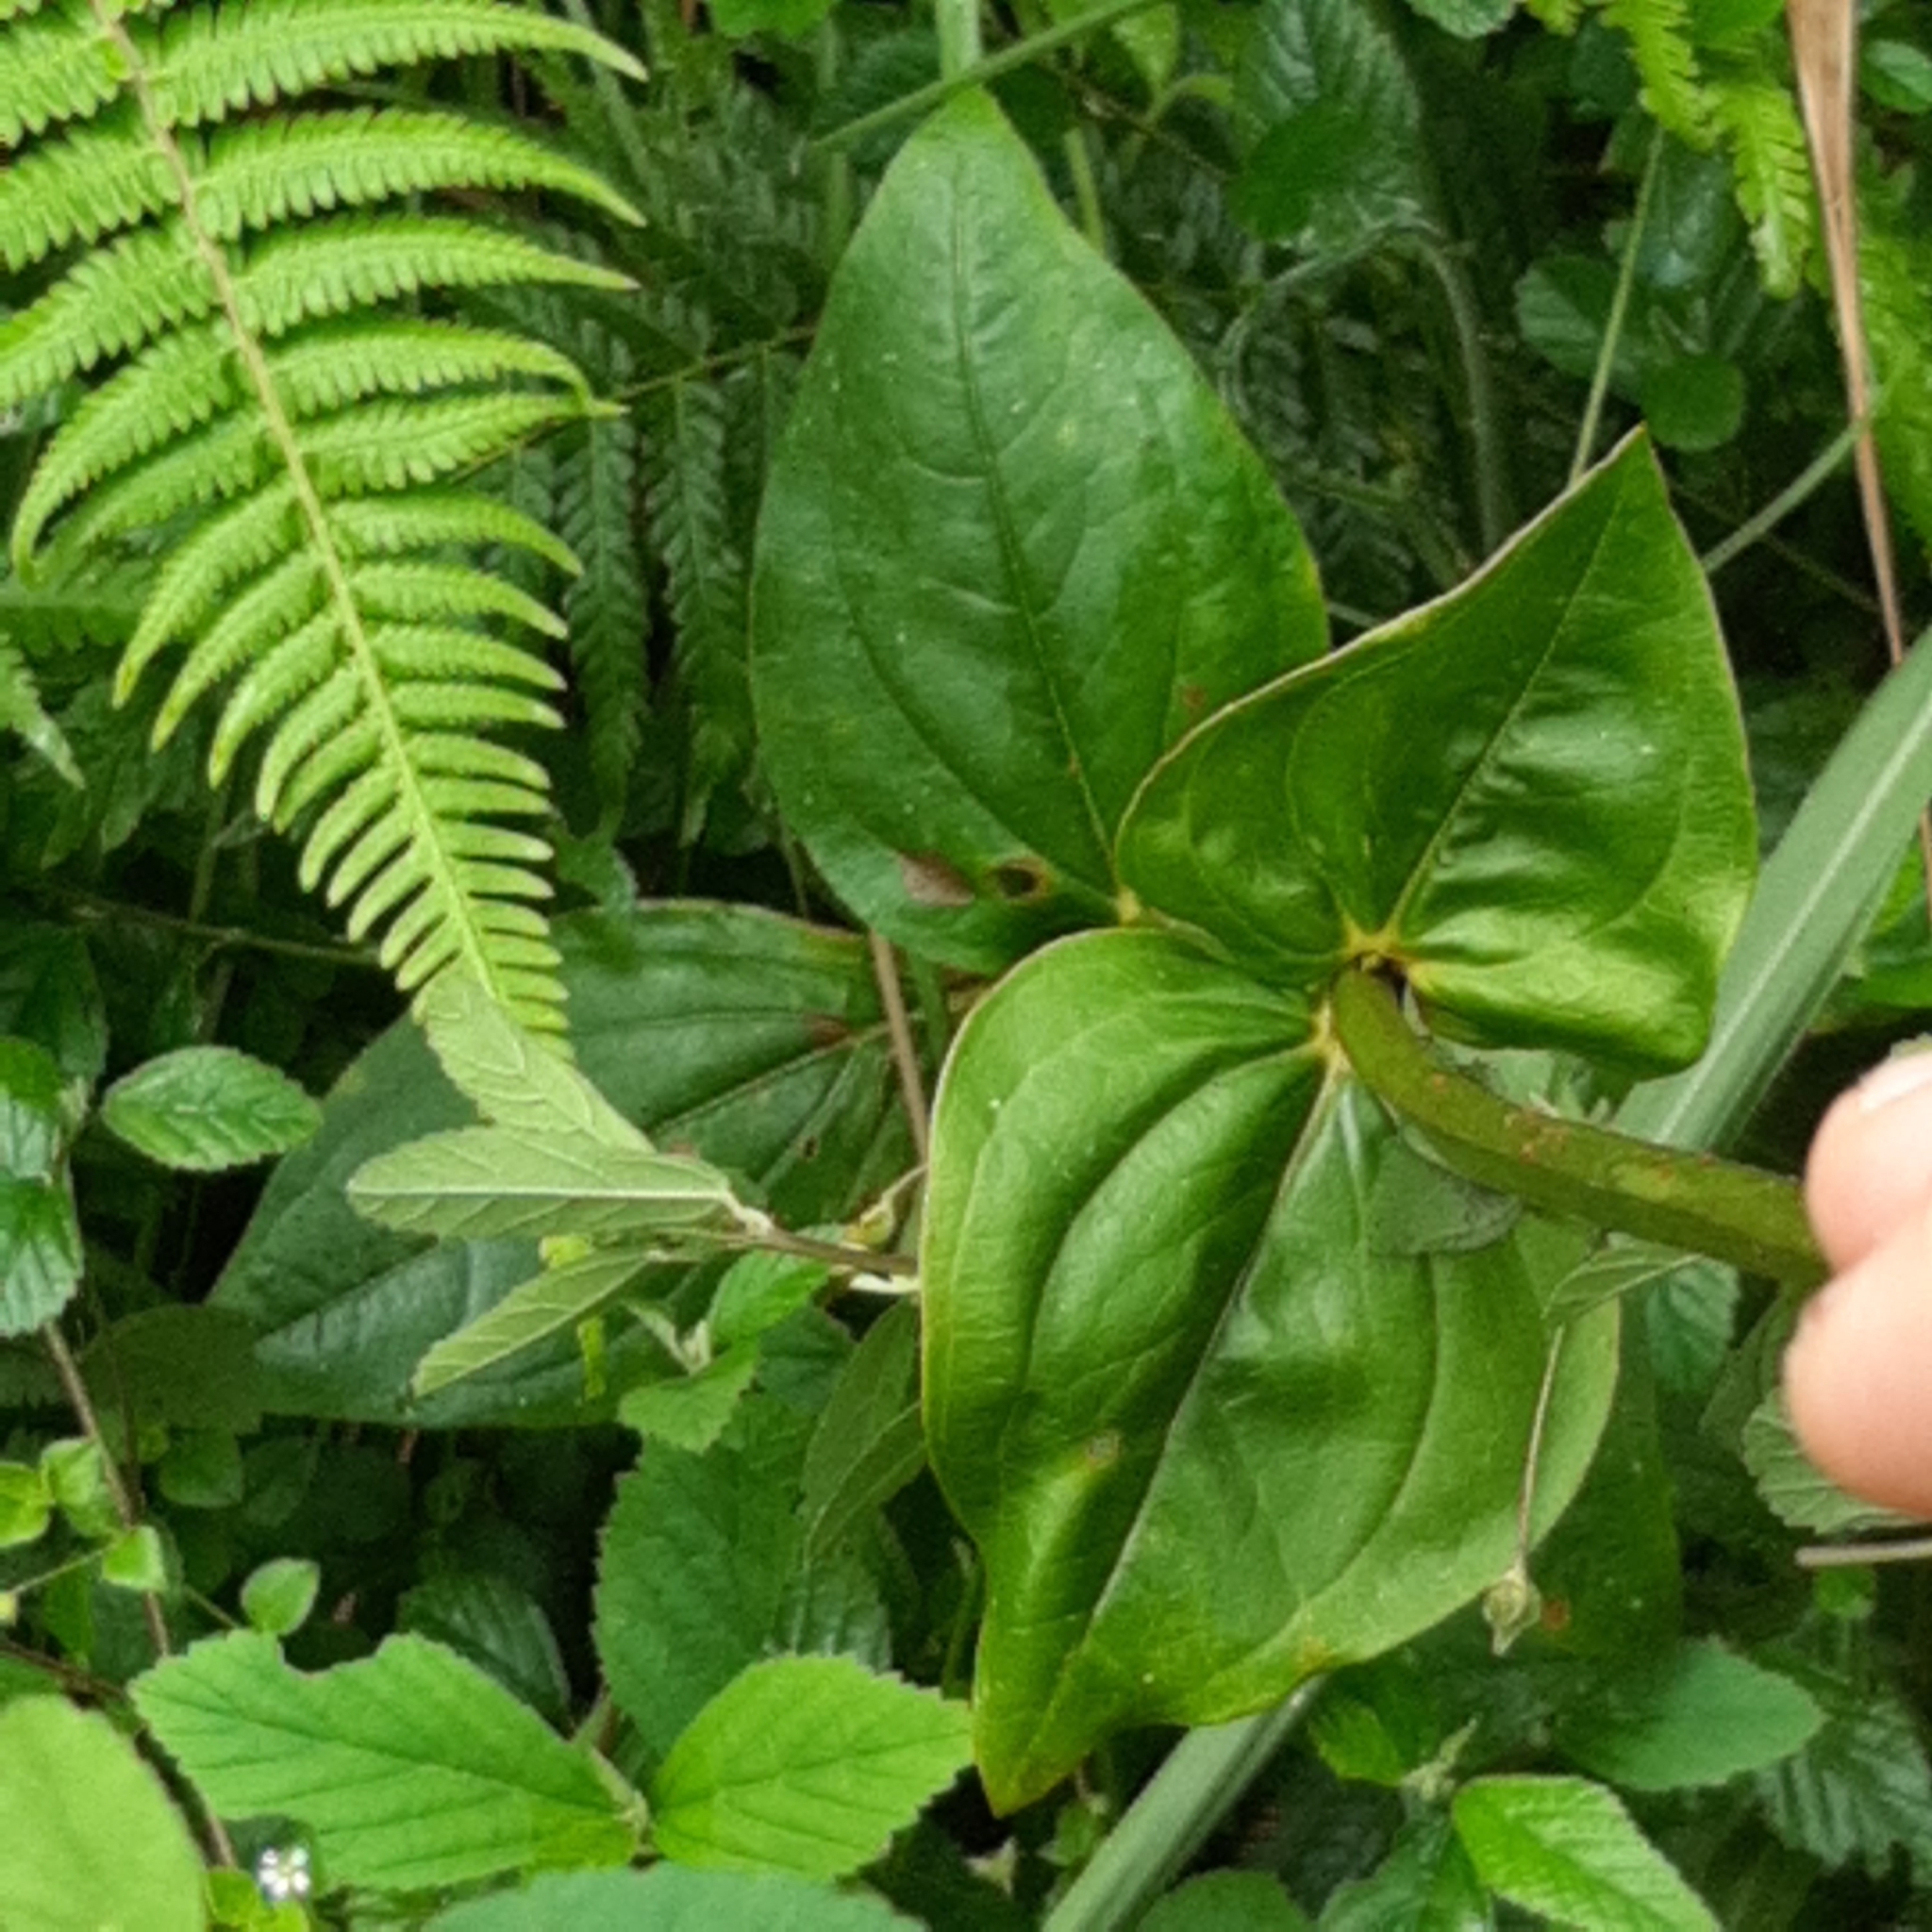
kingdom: Plantae
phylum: Tracheophyta
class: Magnoliopsida
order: Gentianales
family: Gentianaceae
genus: Chelonanthus
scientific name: Chelonanthus alatus
